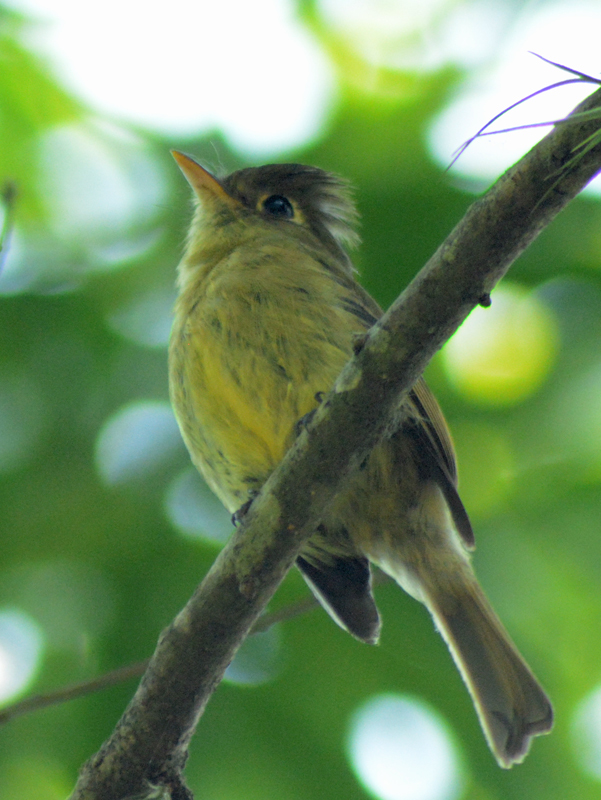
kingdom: Animalia
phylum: Chordata
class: Aves
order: Passeriformes
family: Tyrannidae
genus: Empidonax
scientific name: Empidonax difficilis
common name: Pacific-slope flycatcher
